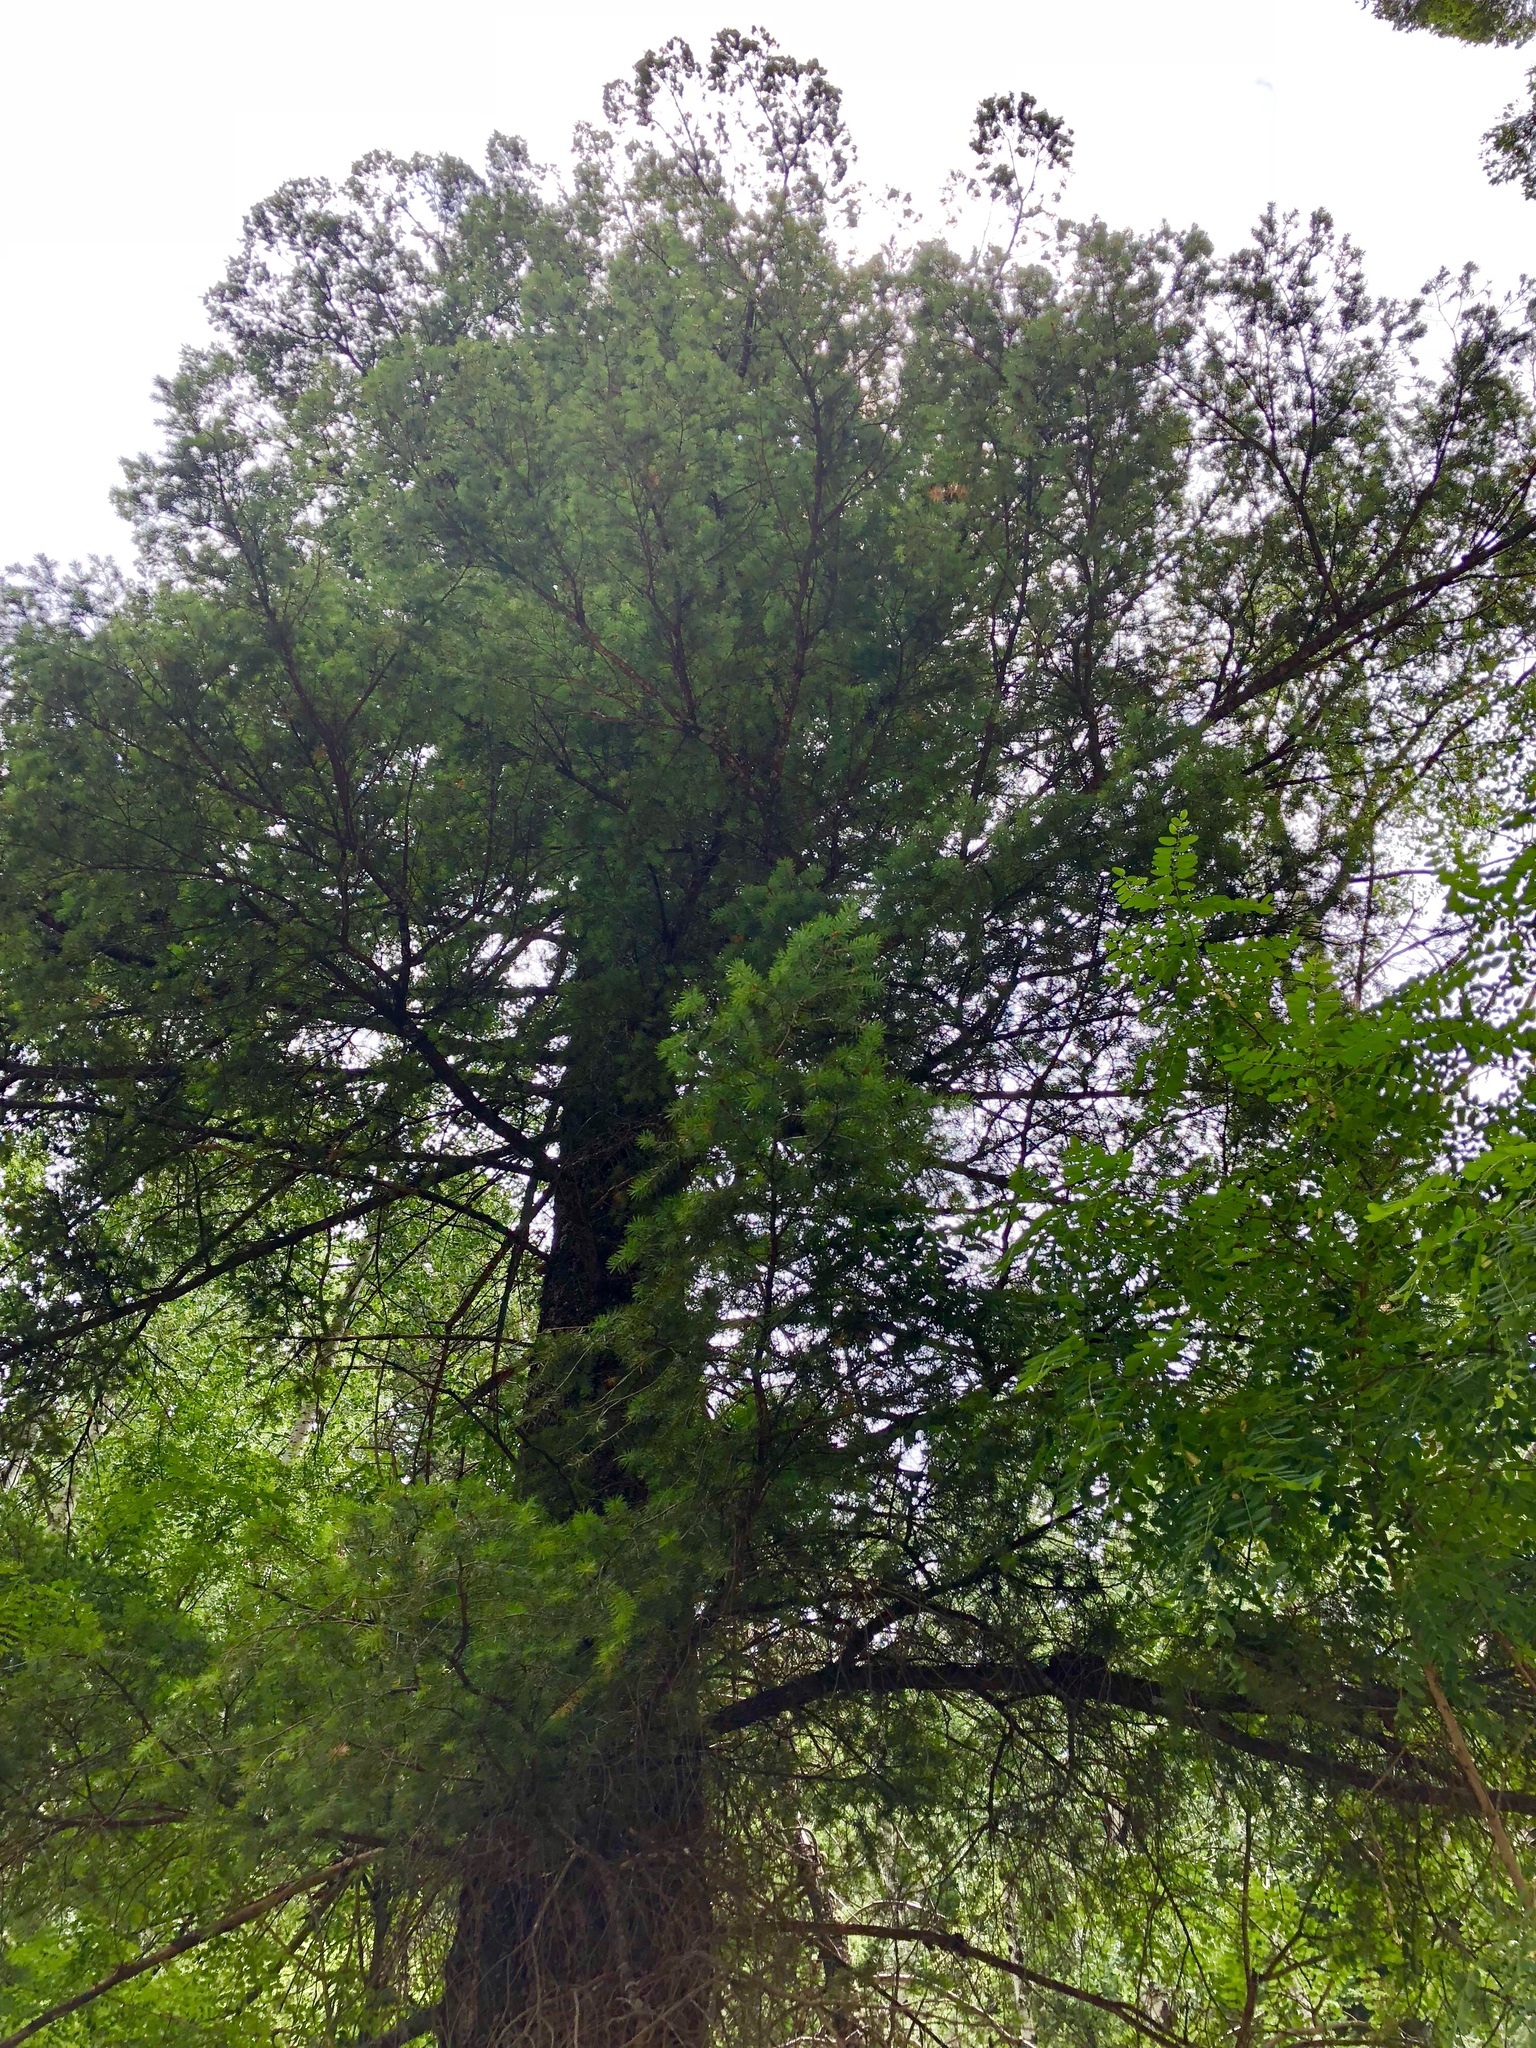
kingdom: Plantae
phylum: Tracheophyta
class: Pinopsida
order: Pinales
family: Pinaceae
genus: Pseudotsuga
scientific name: Pseudotsuga menziesii
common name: Douglas fir
